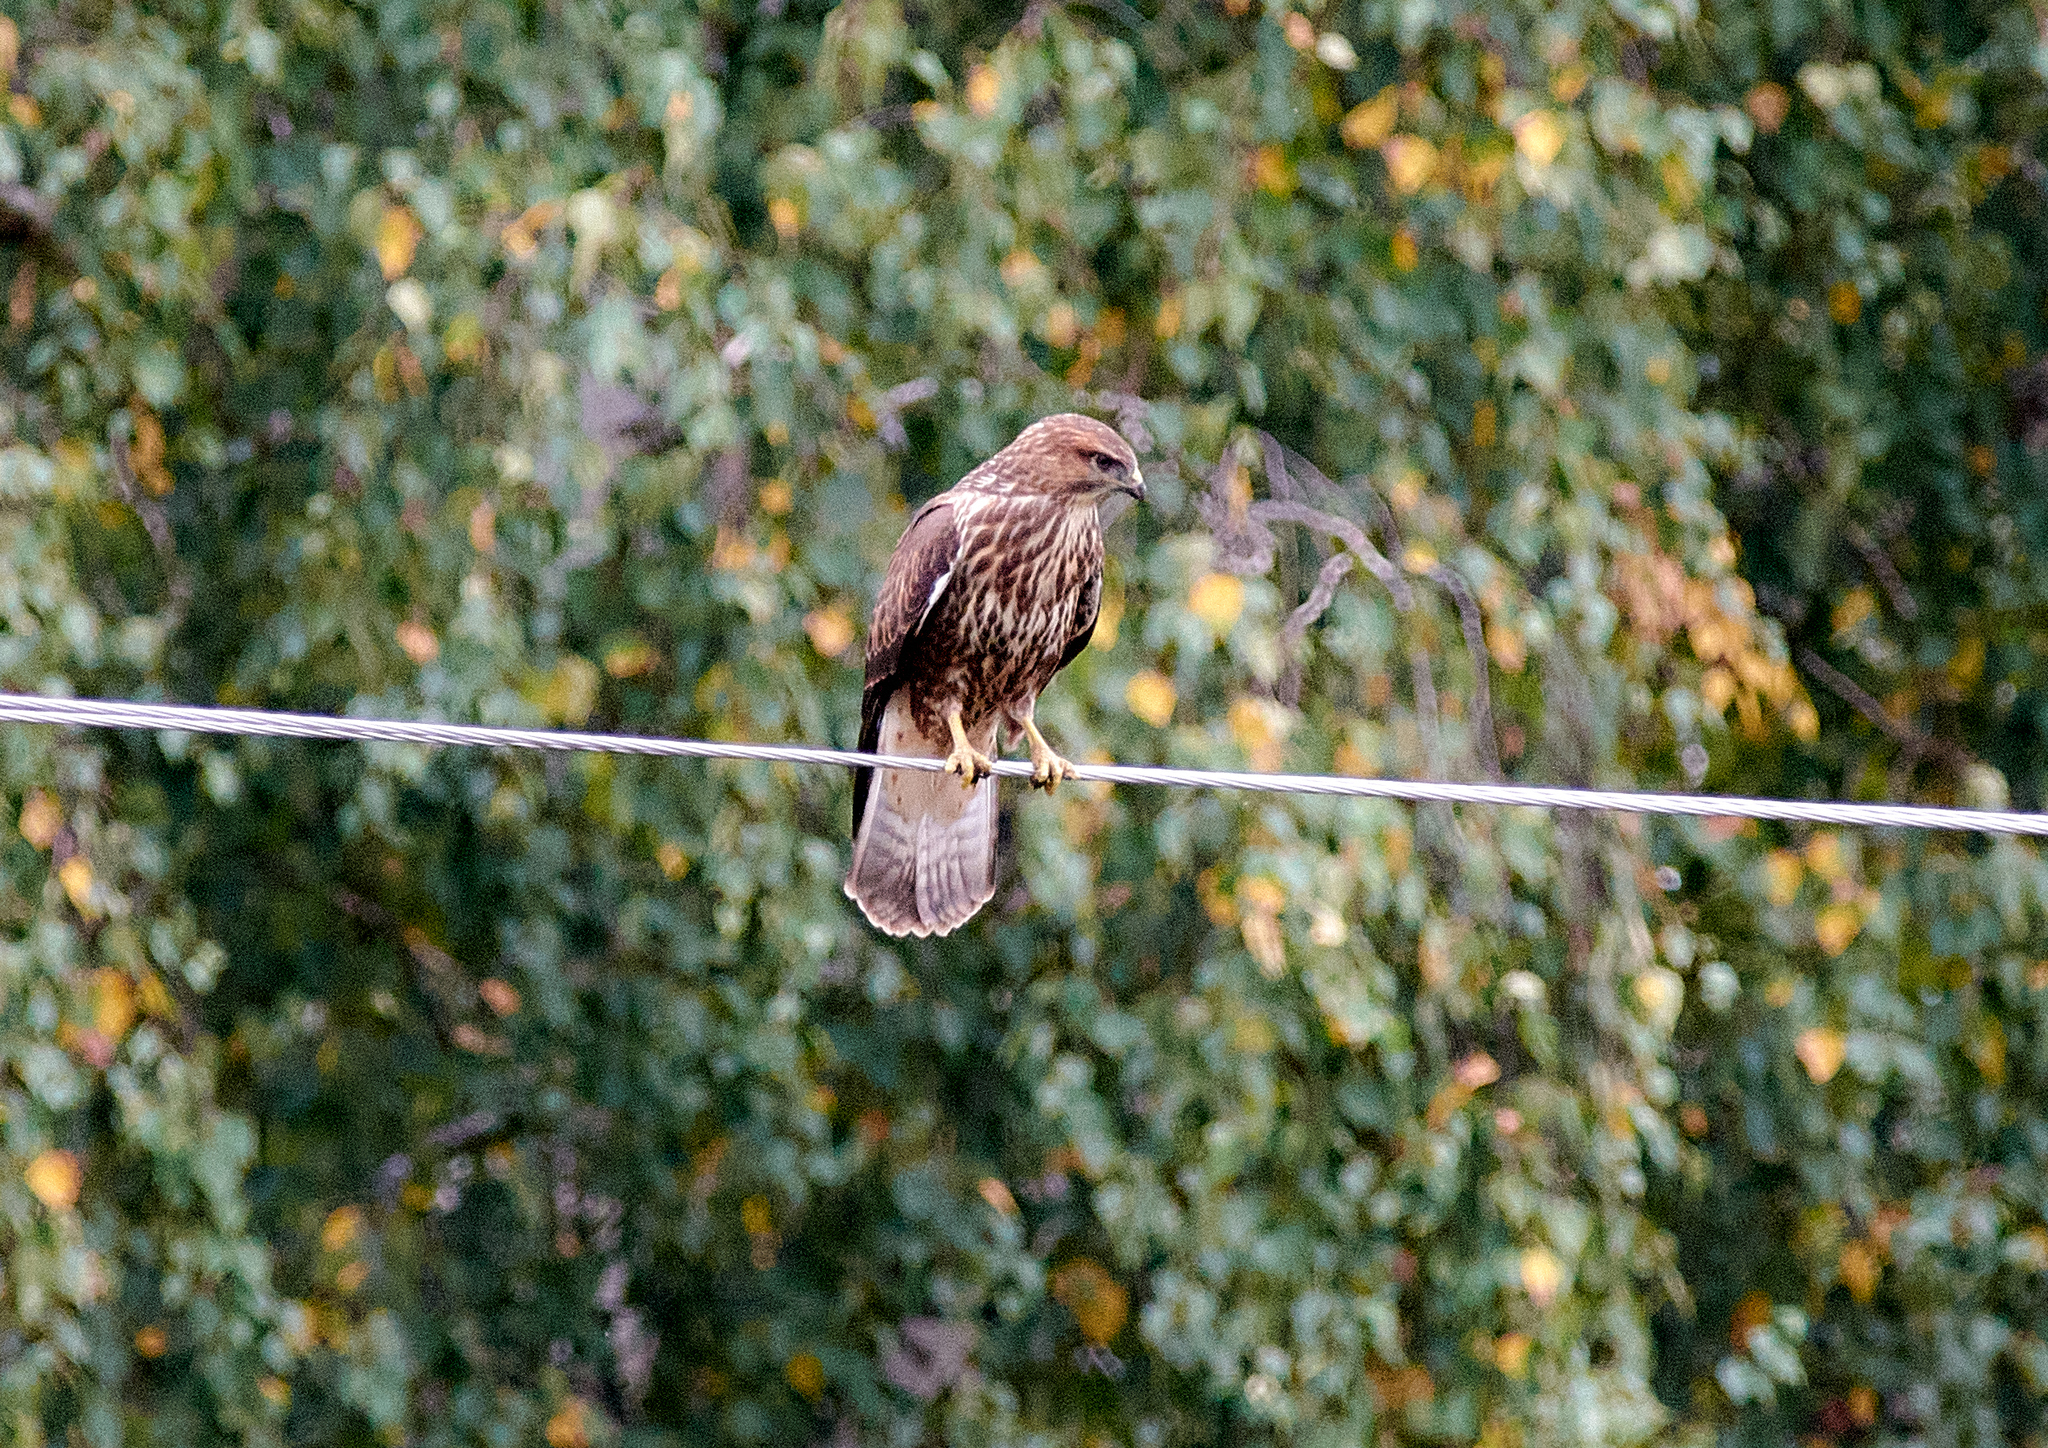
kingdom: Animalia
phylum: Chordata
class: Aves
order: Accipitriformes
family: Accipitridae
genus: Buteo
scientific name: Buteo buteo
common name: Common buzzard
